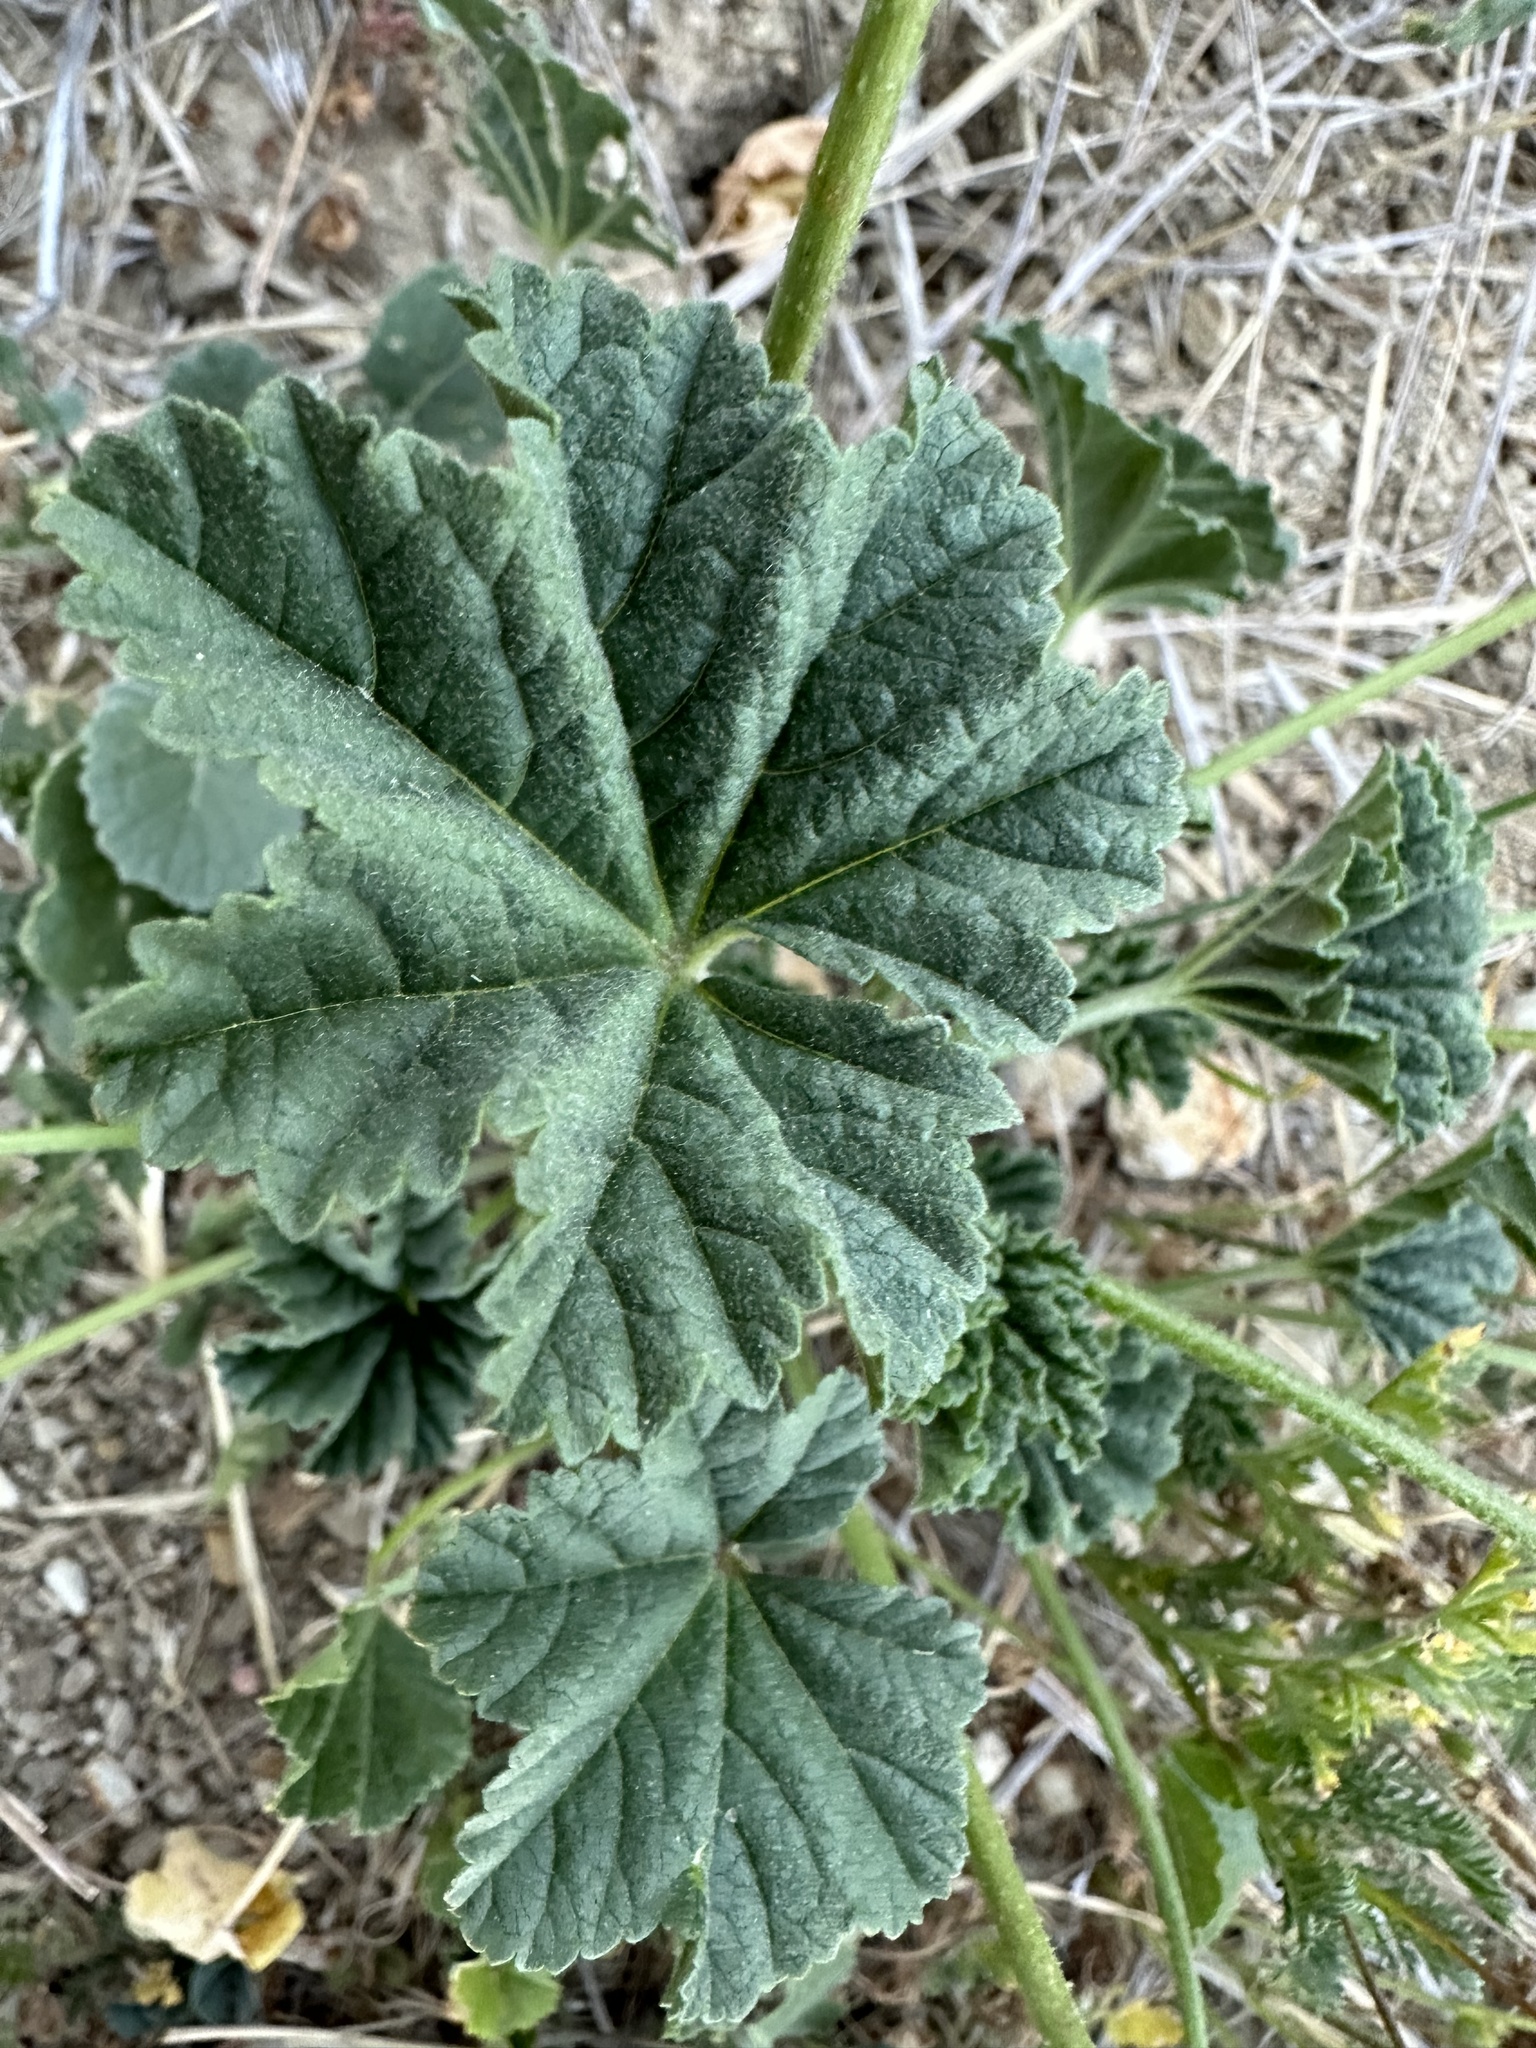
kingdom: Plantae
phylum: Tracheophyta
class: Magnoliopsida
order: Malvales
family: Malvaceae
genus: Malva
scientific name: Malva
